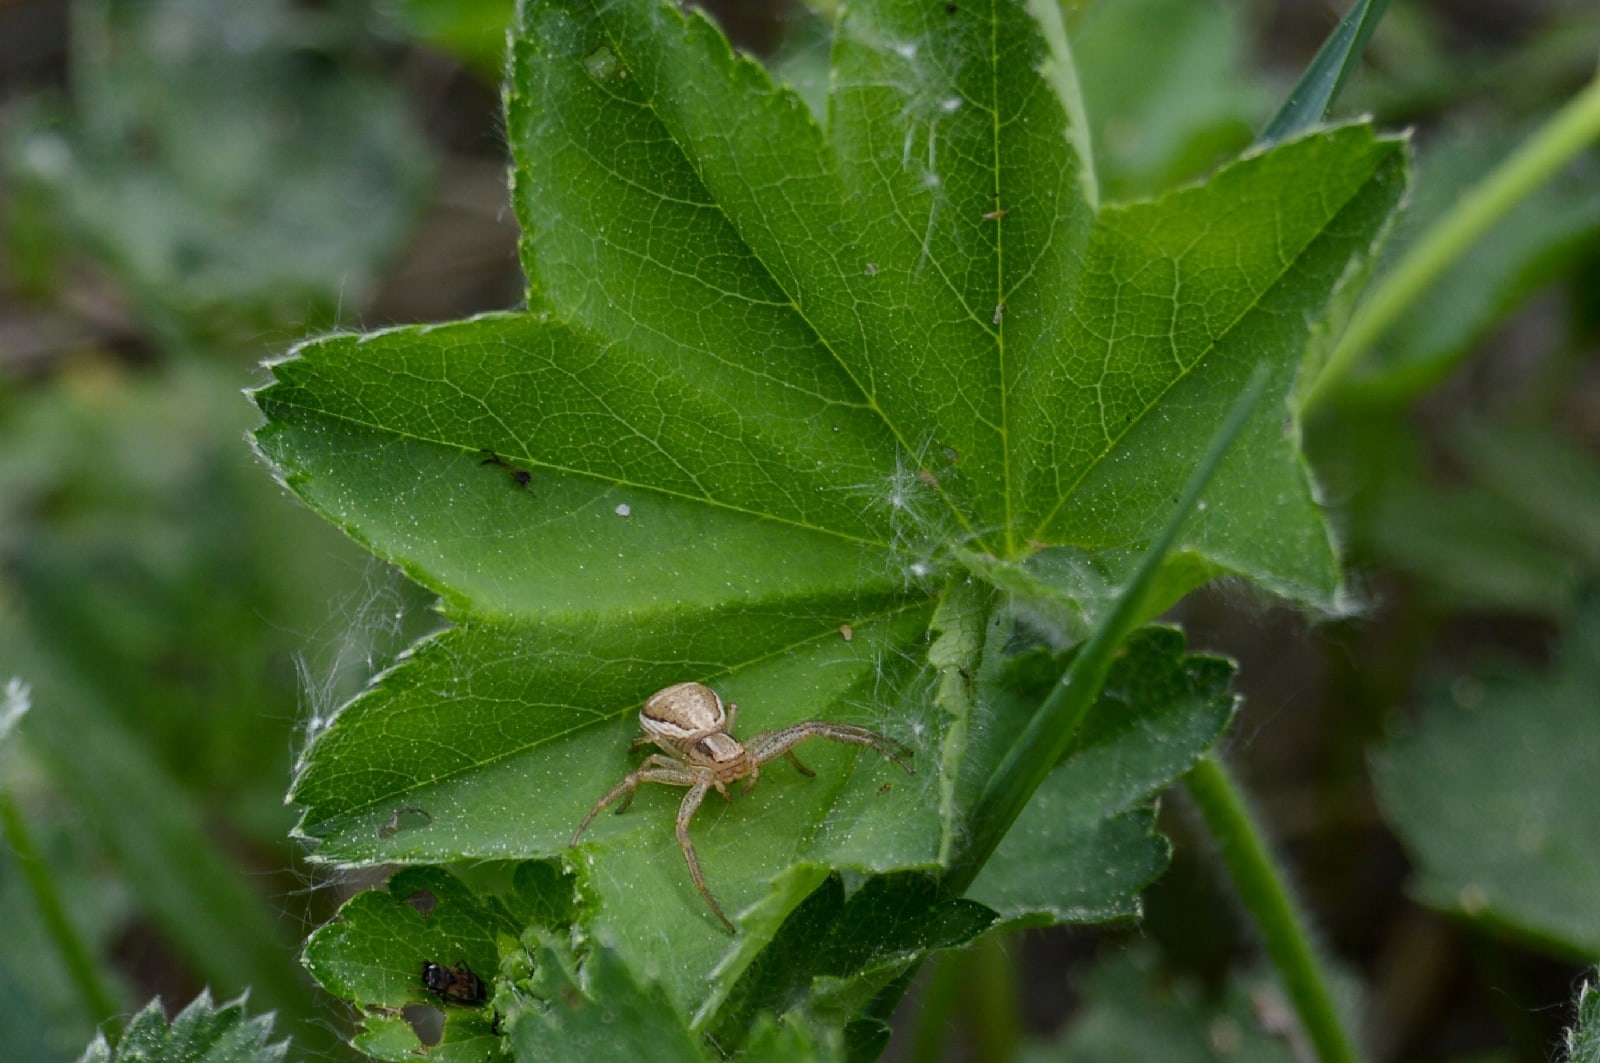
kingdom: Animalia
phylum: Arthropoda
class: Arachnida
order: Araneae
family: Thomisidae
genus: Xysticus
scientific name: Xysticus ulmi
